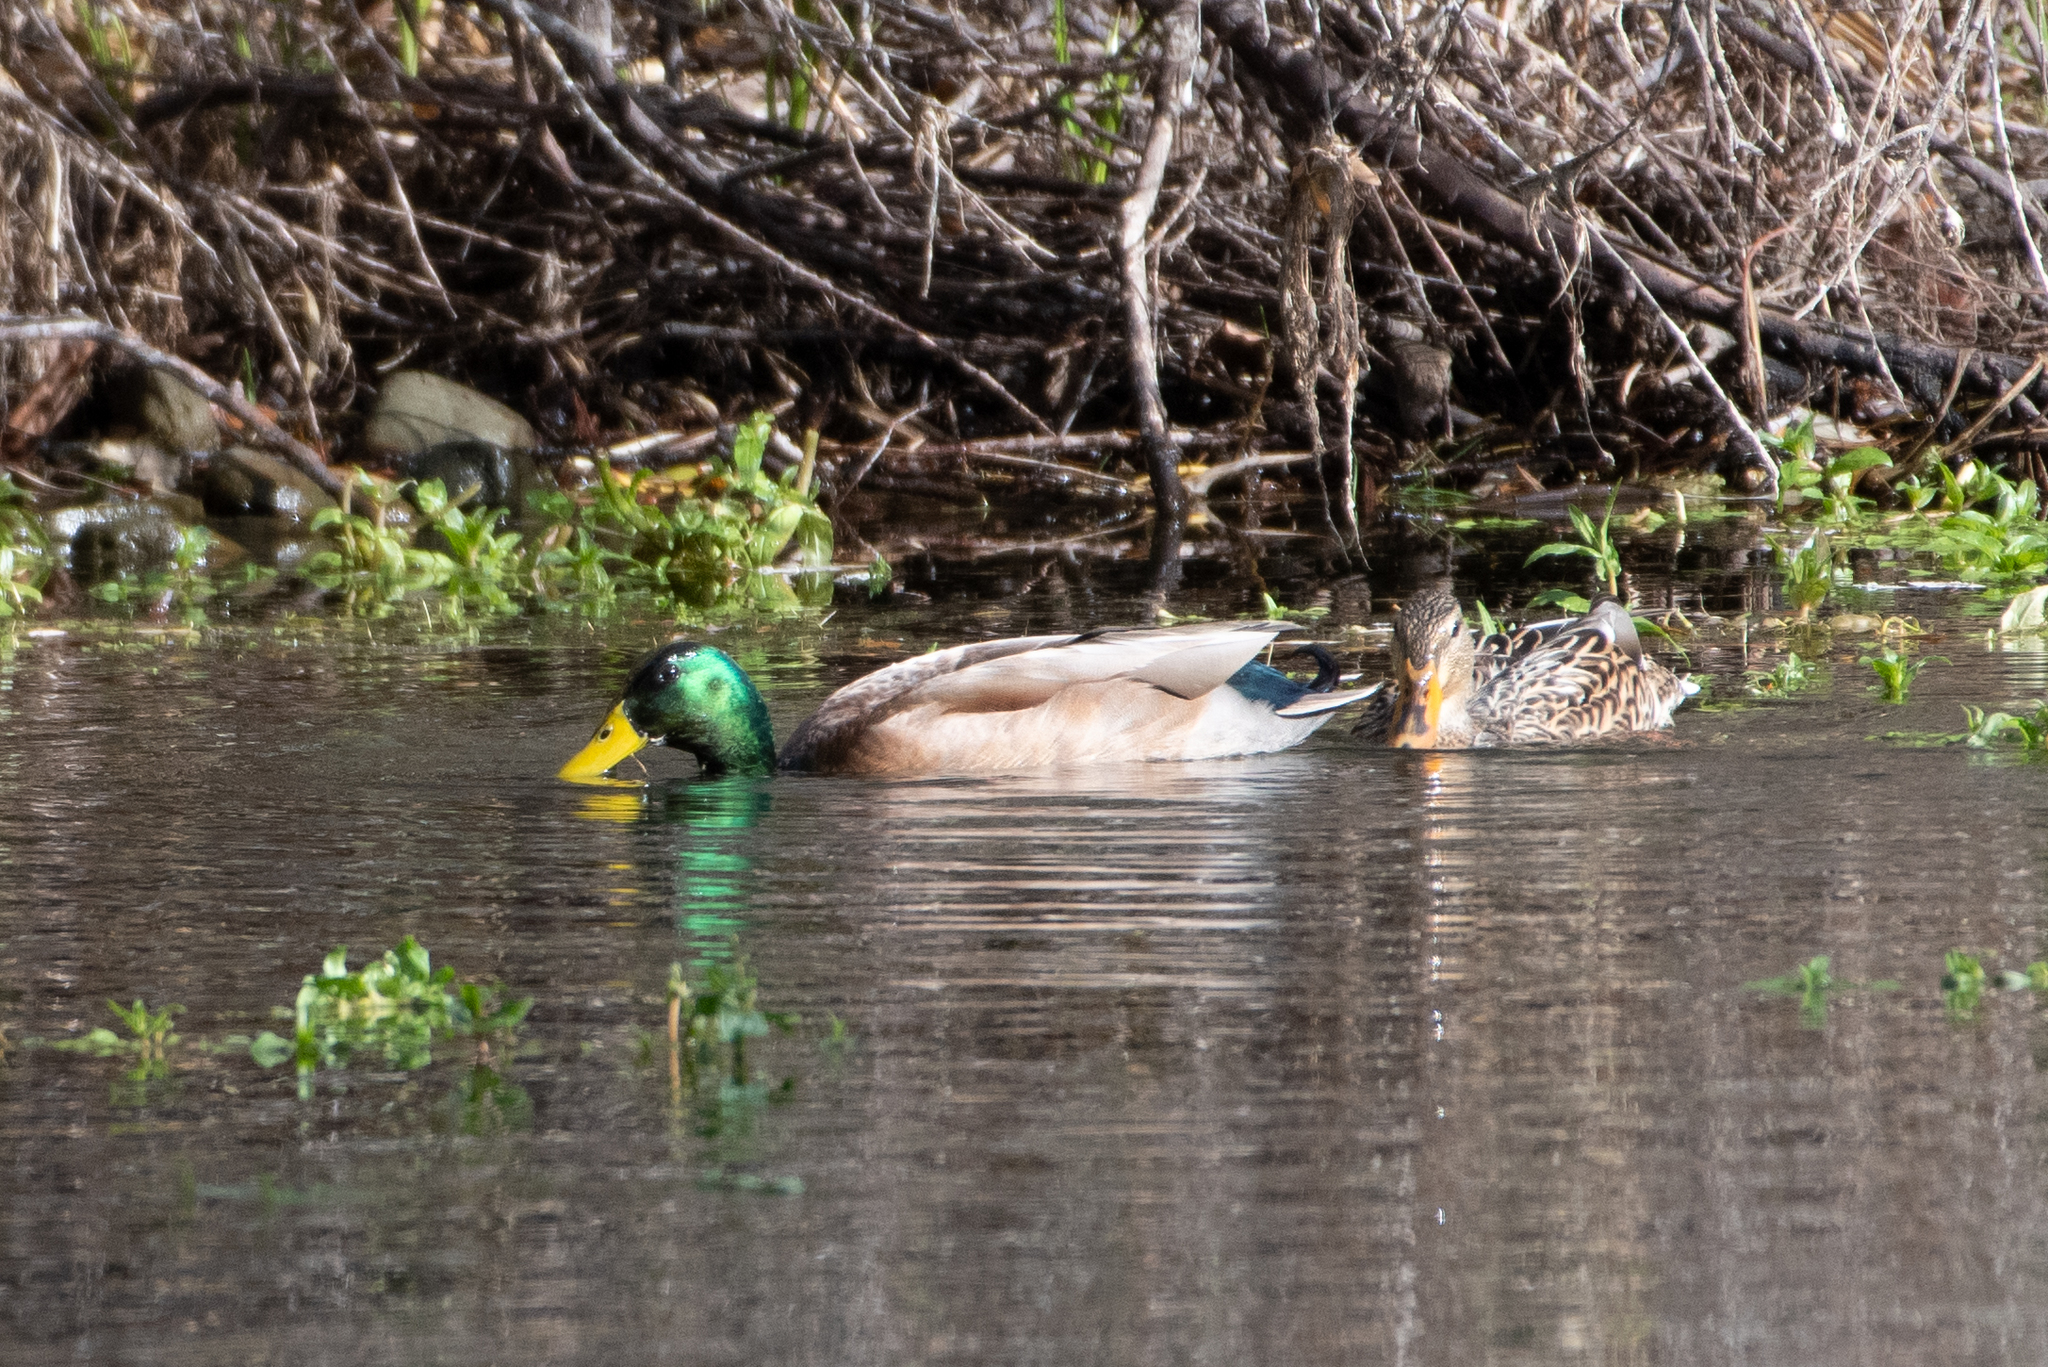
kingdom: Animalia
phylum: Chordata
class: Aves
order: Anseriformes
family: Anatidae
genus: Anas
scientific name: Anas platyrhynchos
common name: Mallard
